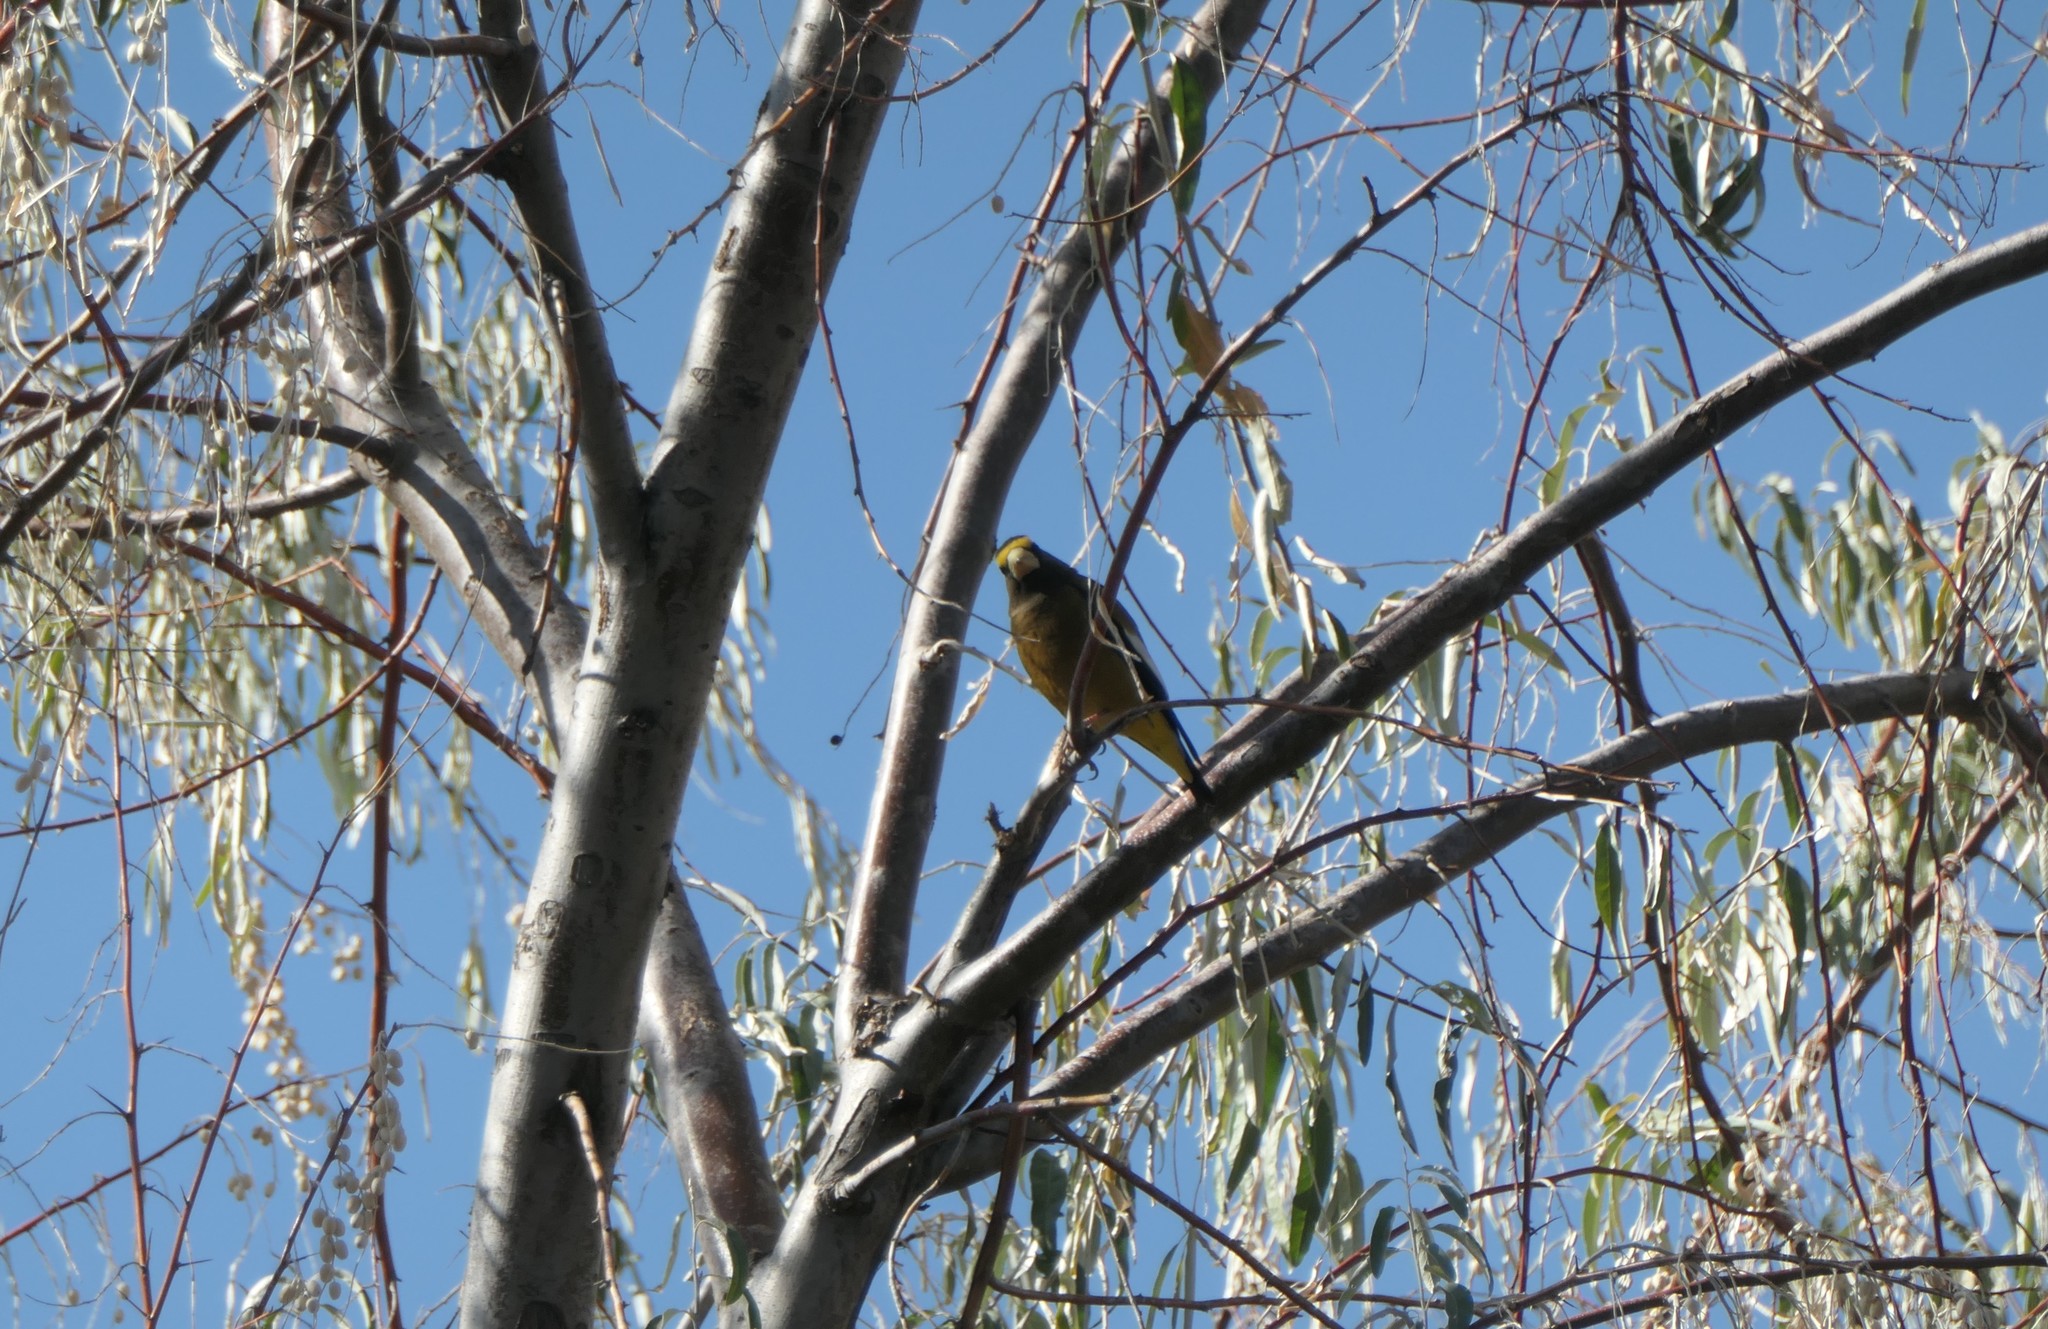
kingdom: Animalia
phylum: Chordata
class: Aves
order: Passeriformes
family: Fringillidae
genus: Hesperiphona
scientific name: Hesperiphona vespertina
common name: Evening grosbeak
